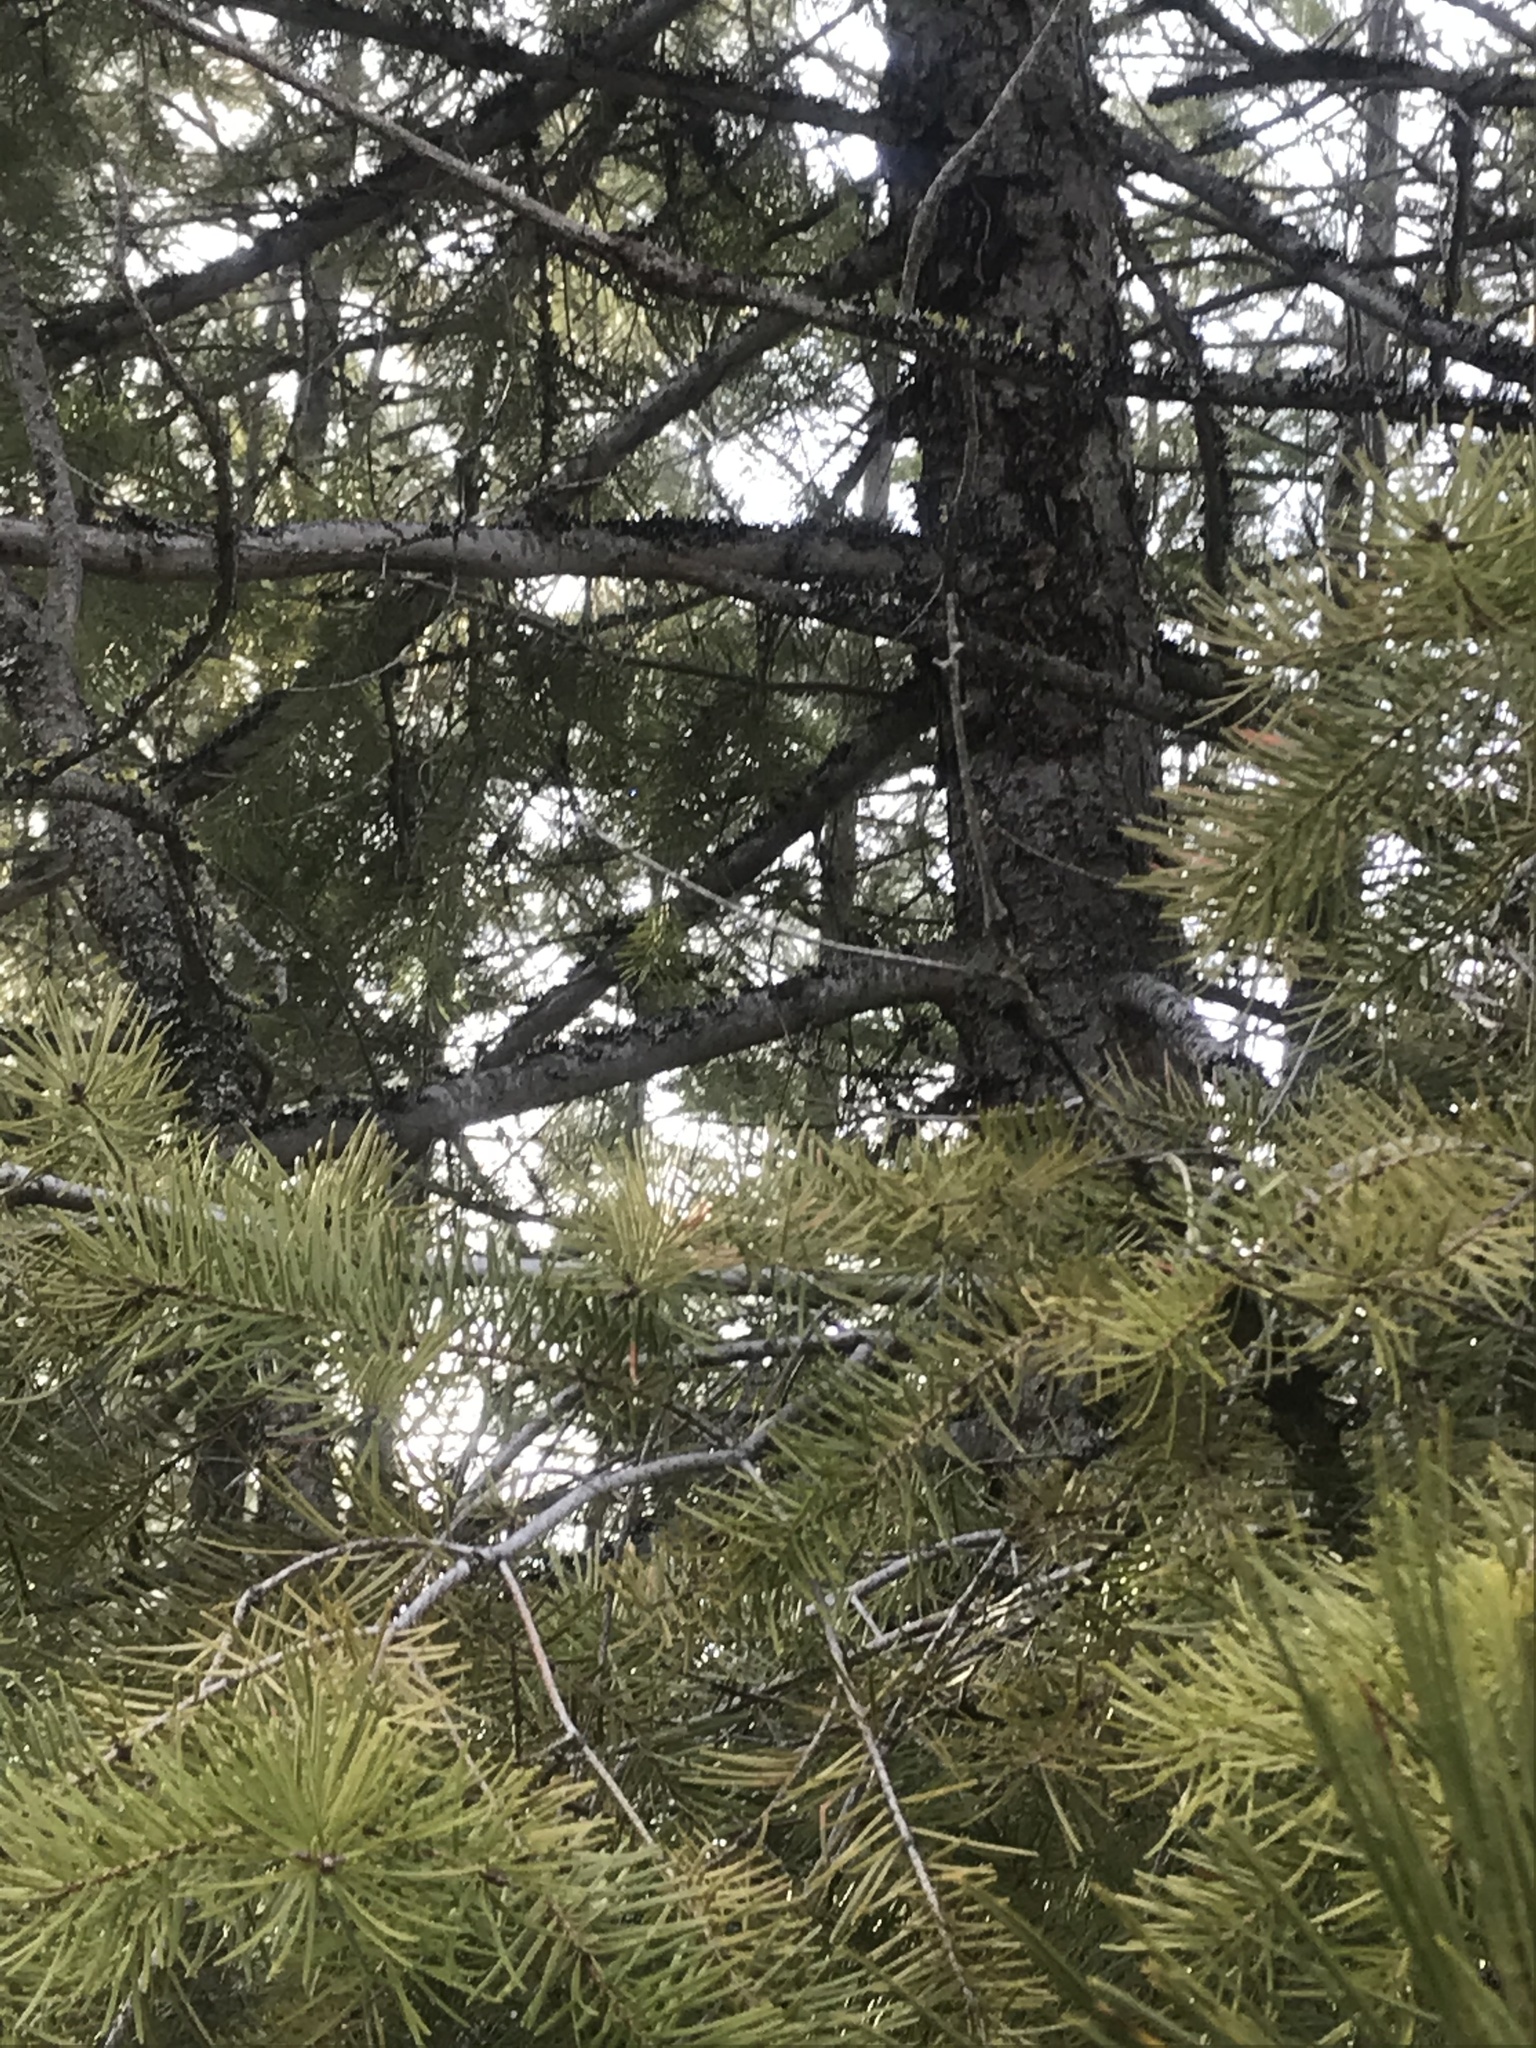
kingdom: Plantae
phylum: Tracheophyta
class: Pinopsida
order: Pinales
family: Pinaceae
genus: Pseudotsuga
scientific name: Pseudotsuga menziesii
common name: Douglas fir
